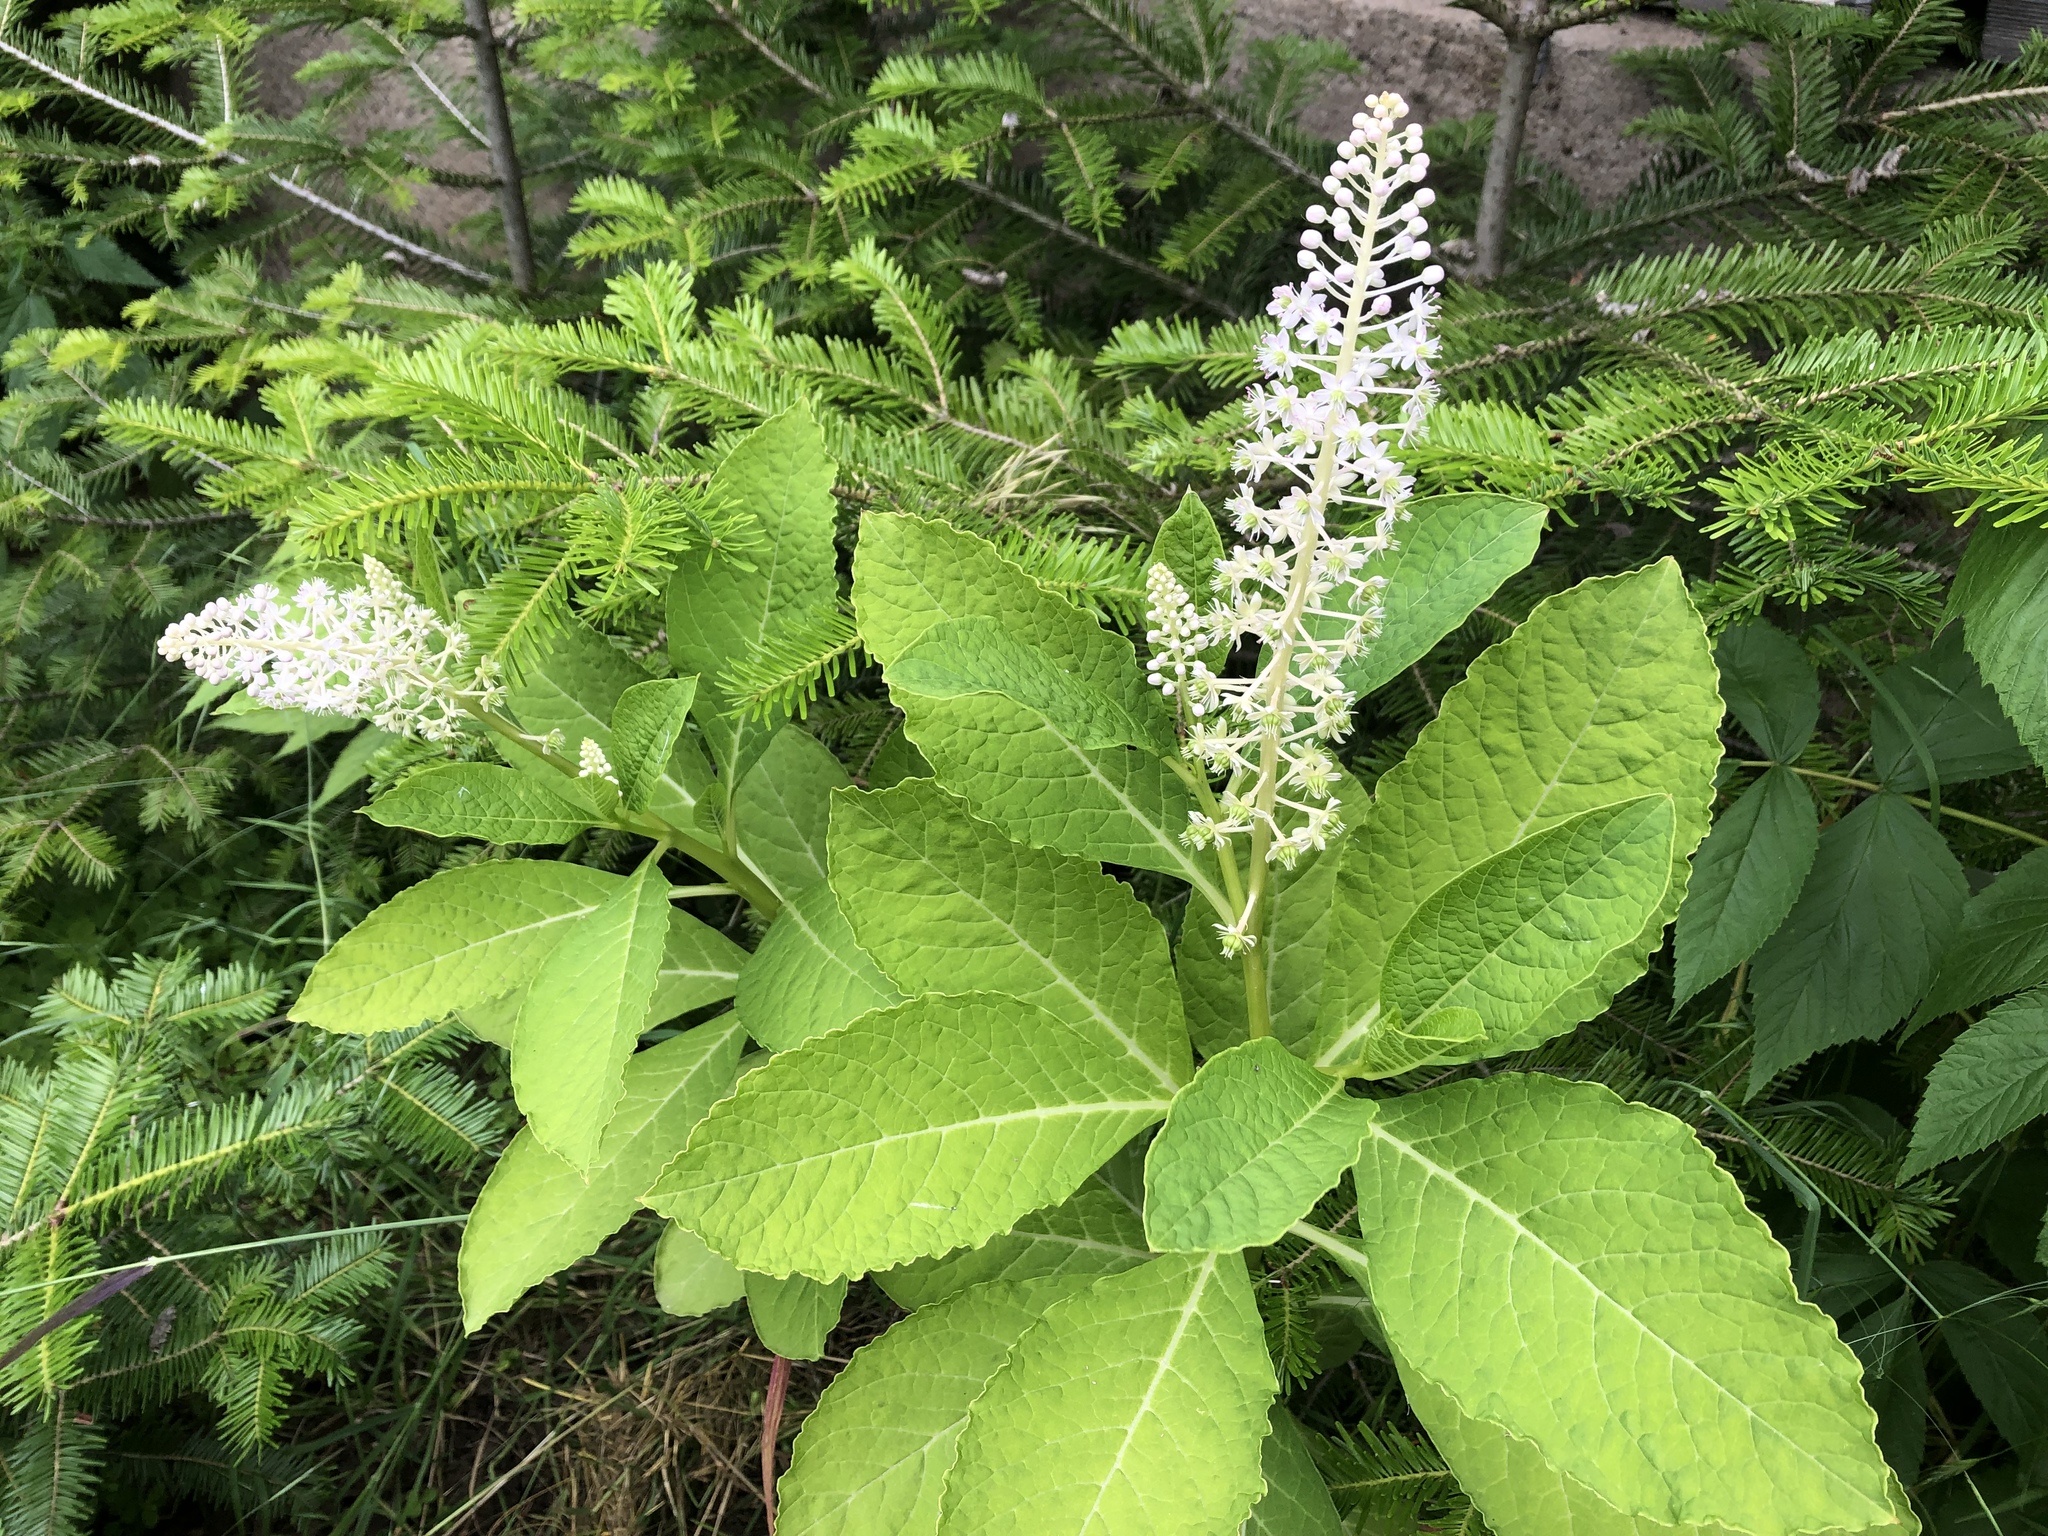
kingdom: Plantae
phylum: Tracheophyta
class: Magnoliopsida
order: Caryophyllales
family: Phytolaccaceae
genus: Phytolacca
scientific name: Phytolacca acinosa
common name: Indian pokeweed
